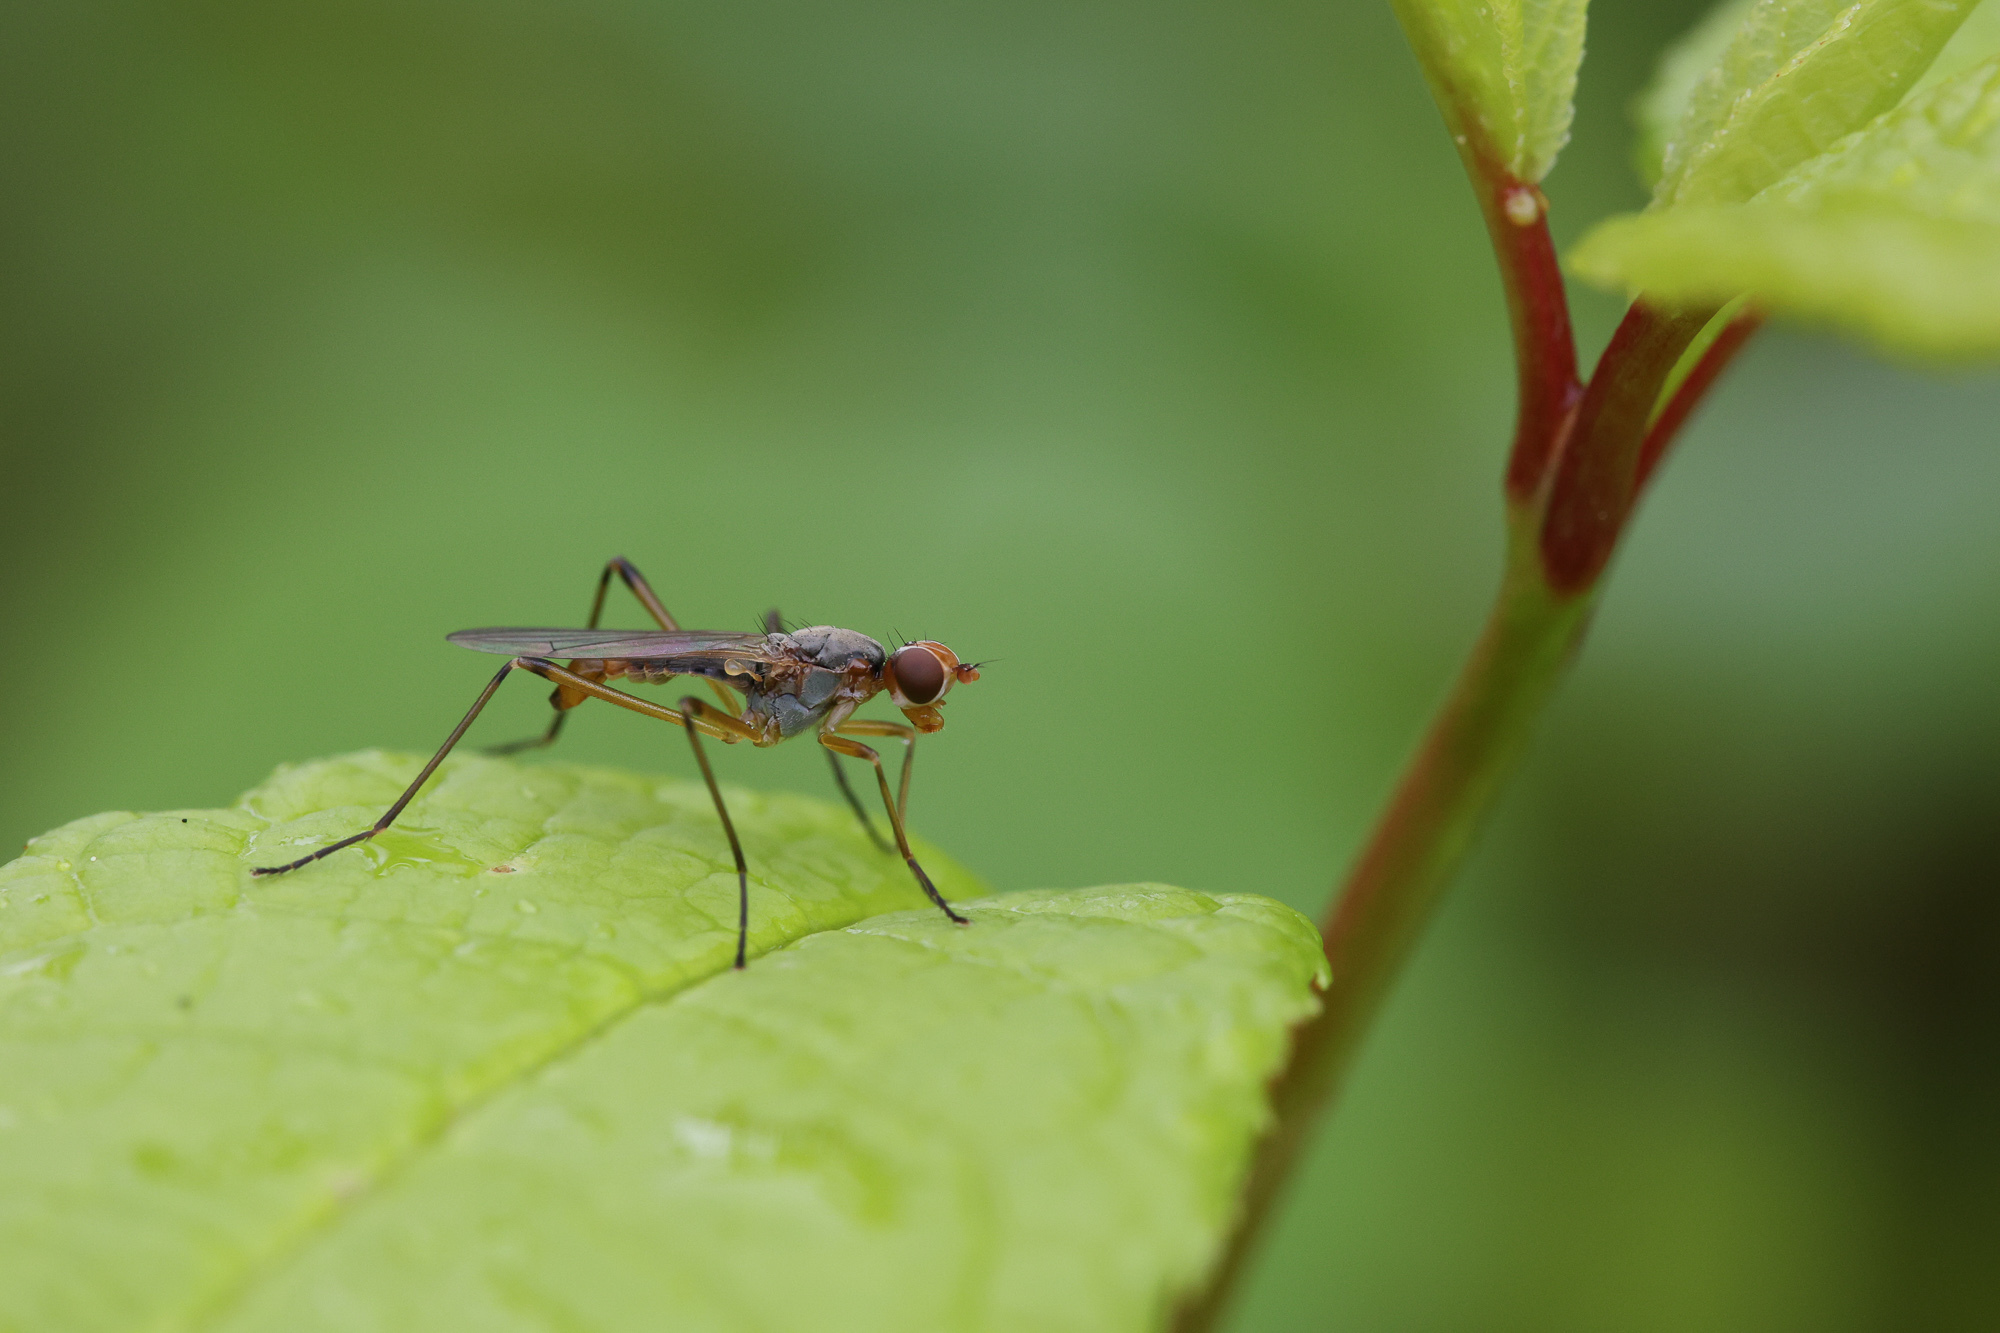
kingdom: Animalia
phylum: Arthropoda
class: Insecta
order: Diptera
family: Micropezidae
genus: Calobata
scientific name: Calobata petronella
